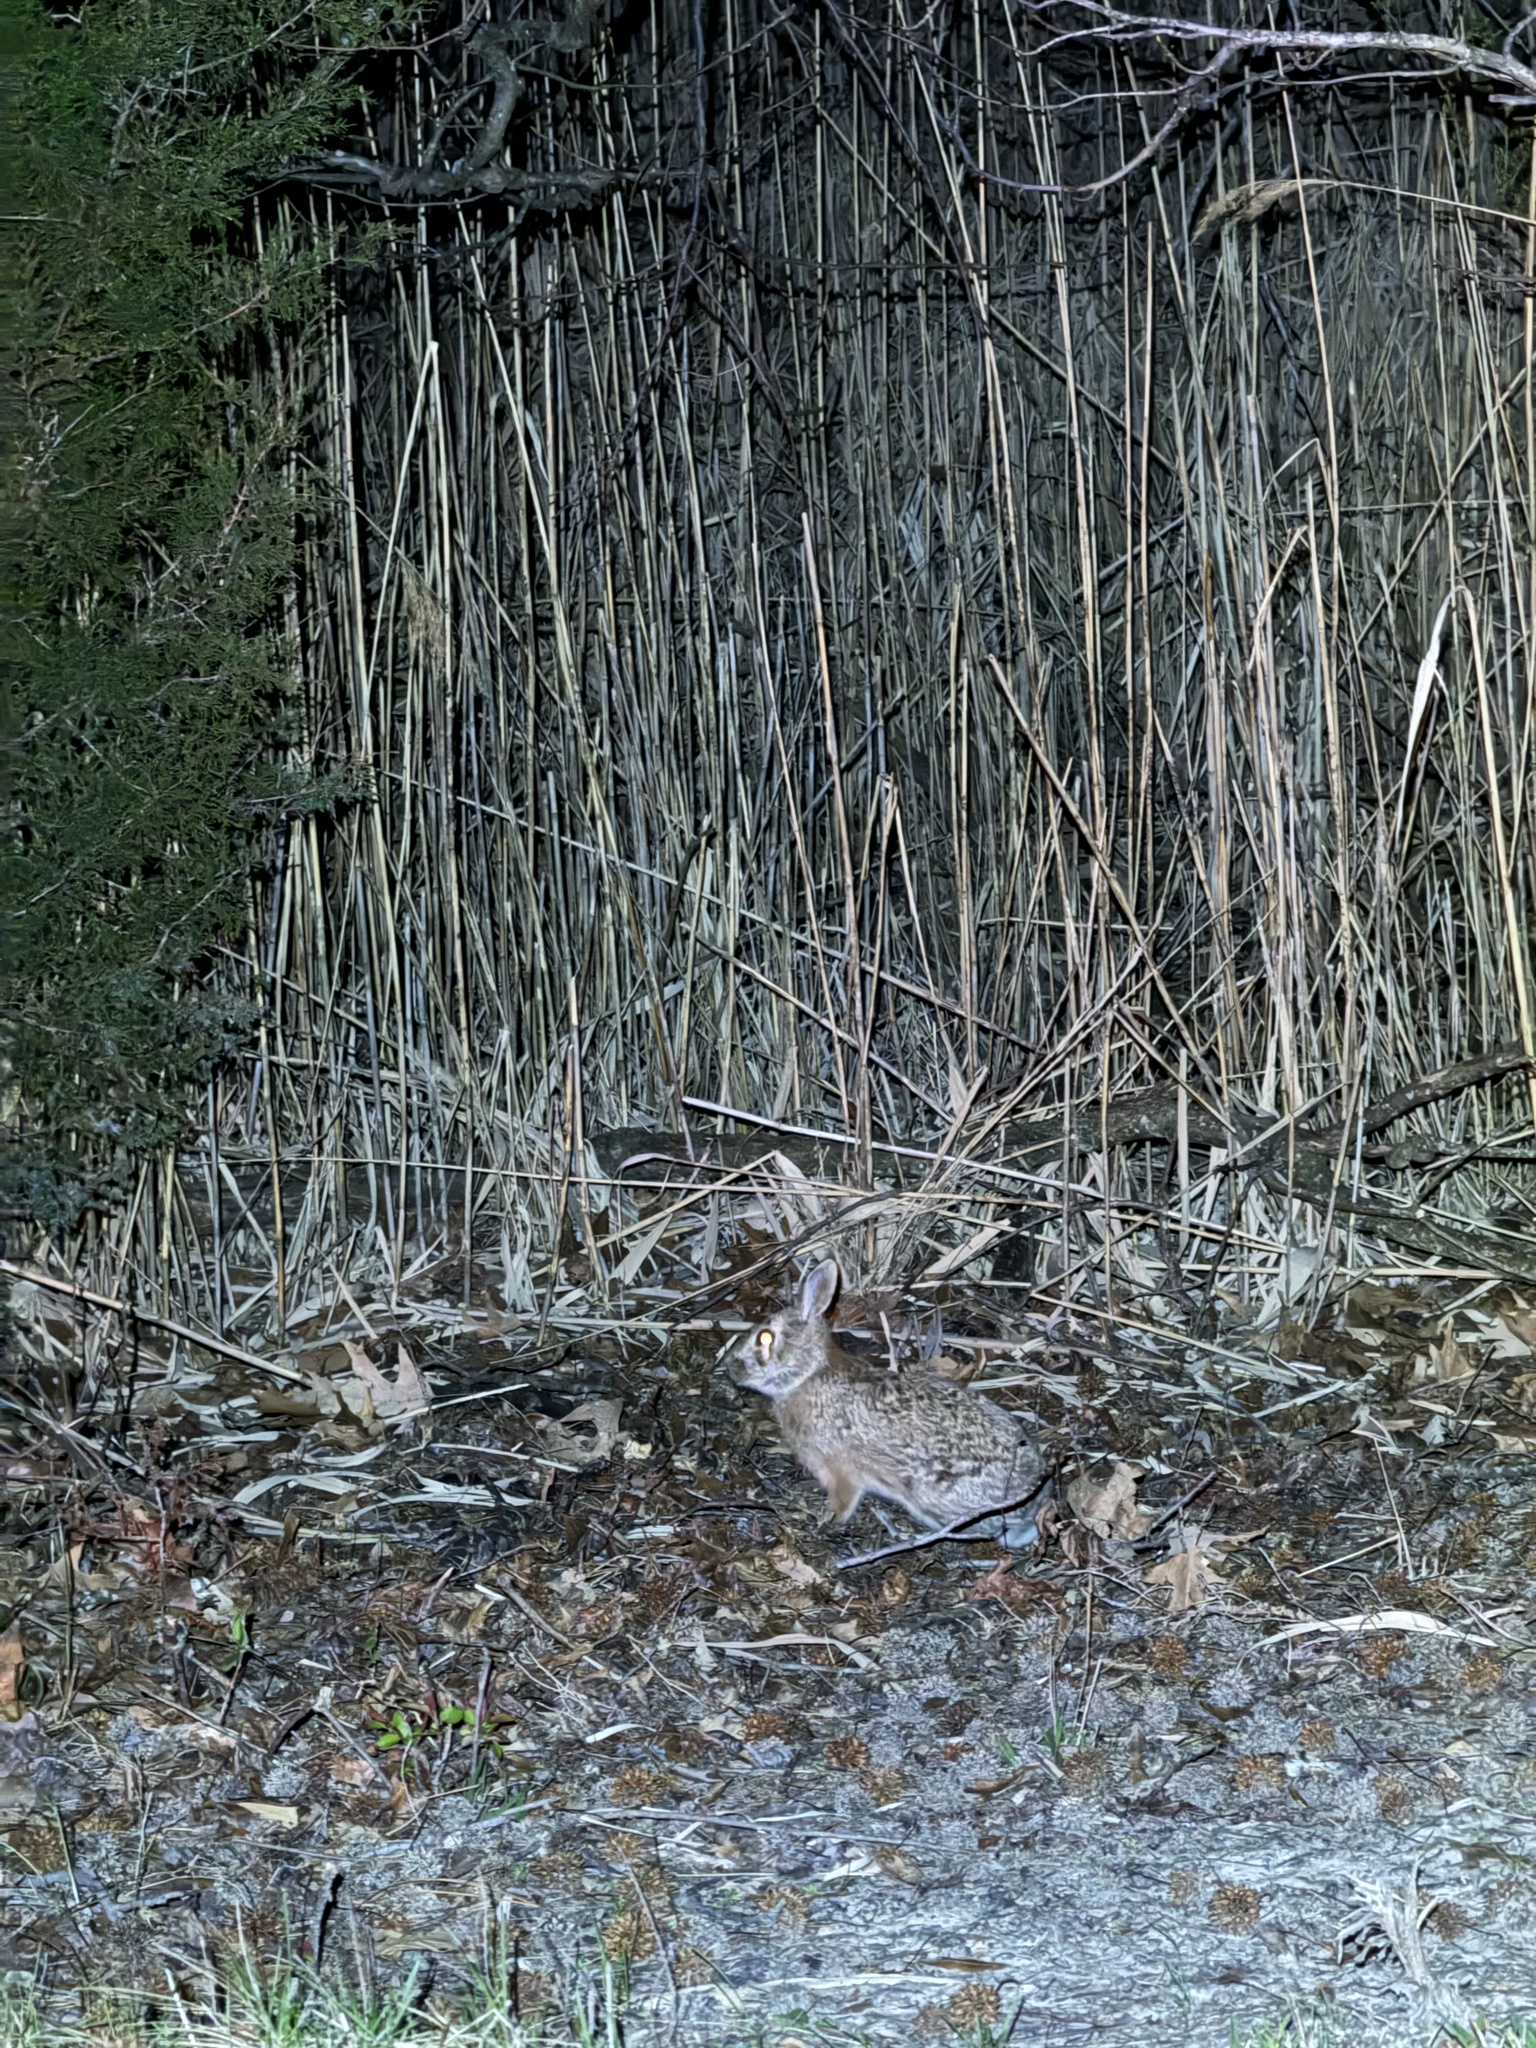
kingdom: Animalia
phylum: Chordata
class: Mammalia
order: Lagomorpha
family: Leporidae
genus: Sylvilagus
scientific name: Sylvilagus floridanus
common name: Eastern cottontail
